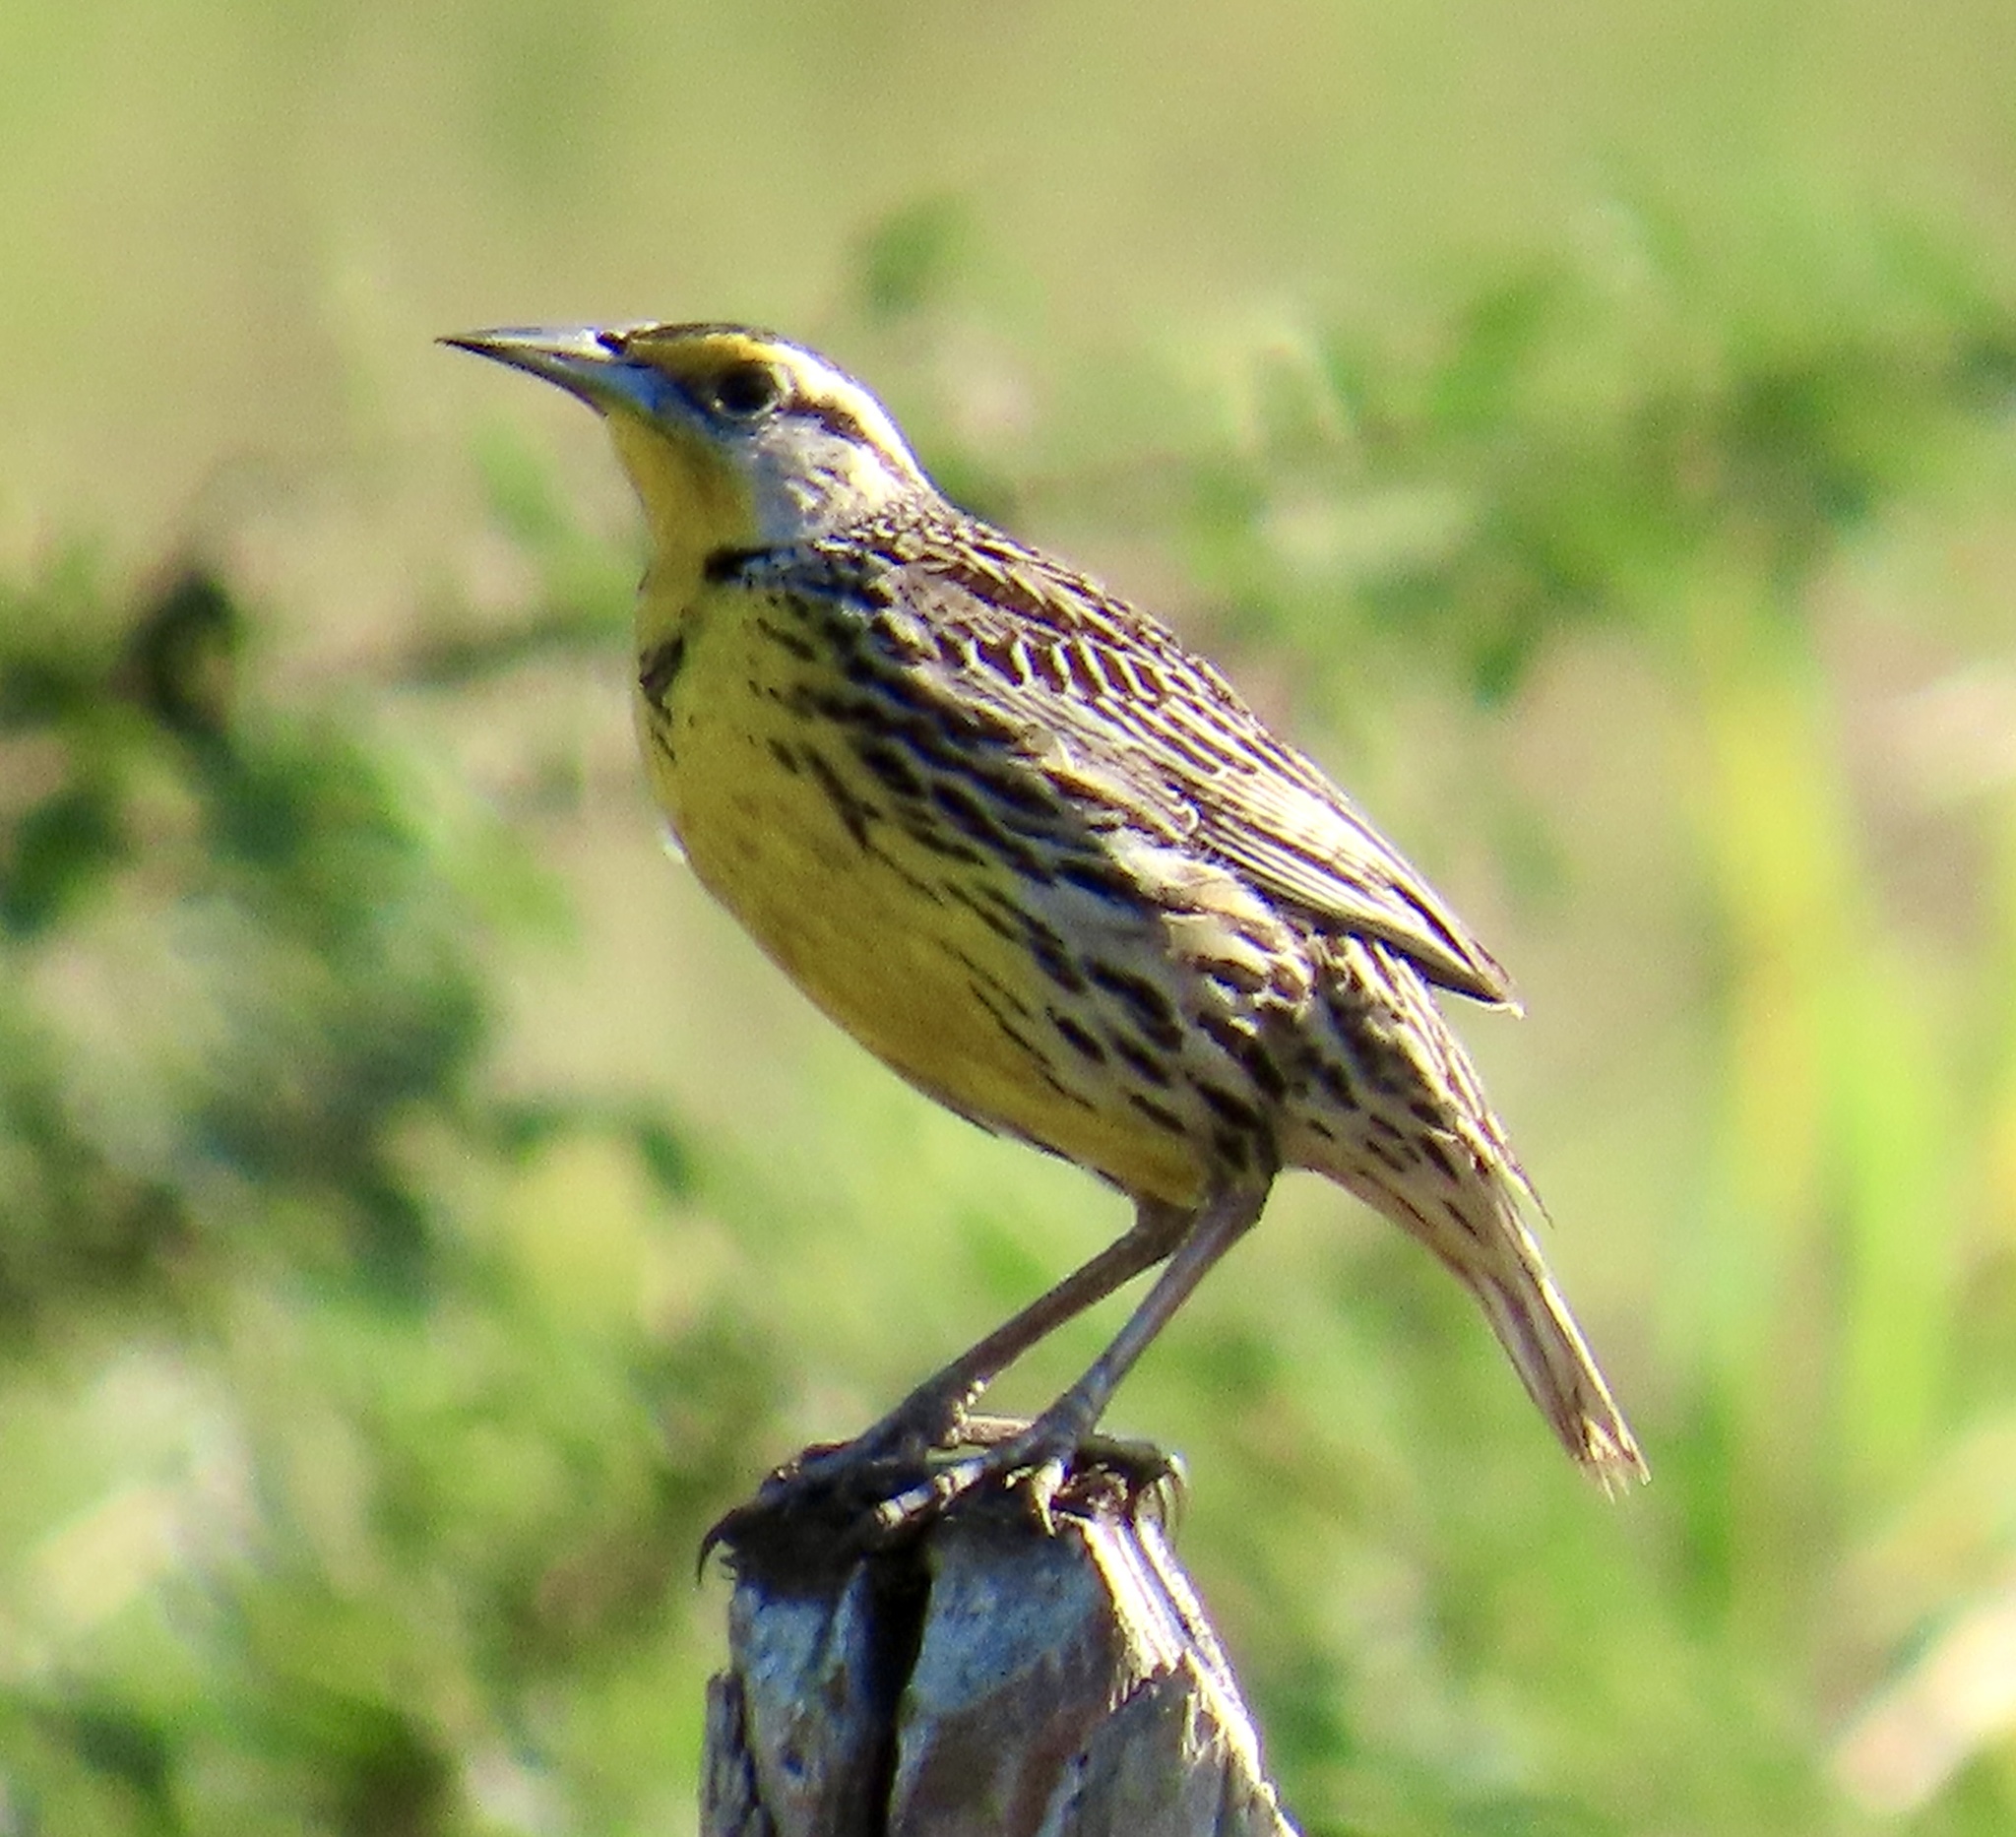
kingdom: Animalia
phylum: Chordata
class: Aves
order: Passeriformes
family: Icteridae
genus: Sturnella
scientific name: Sturnella magna
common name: Eastern meadowlark
